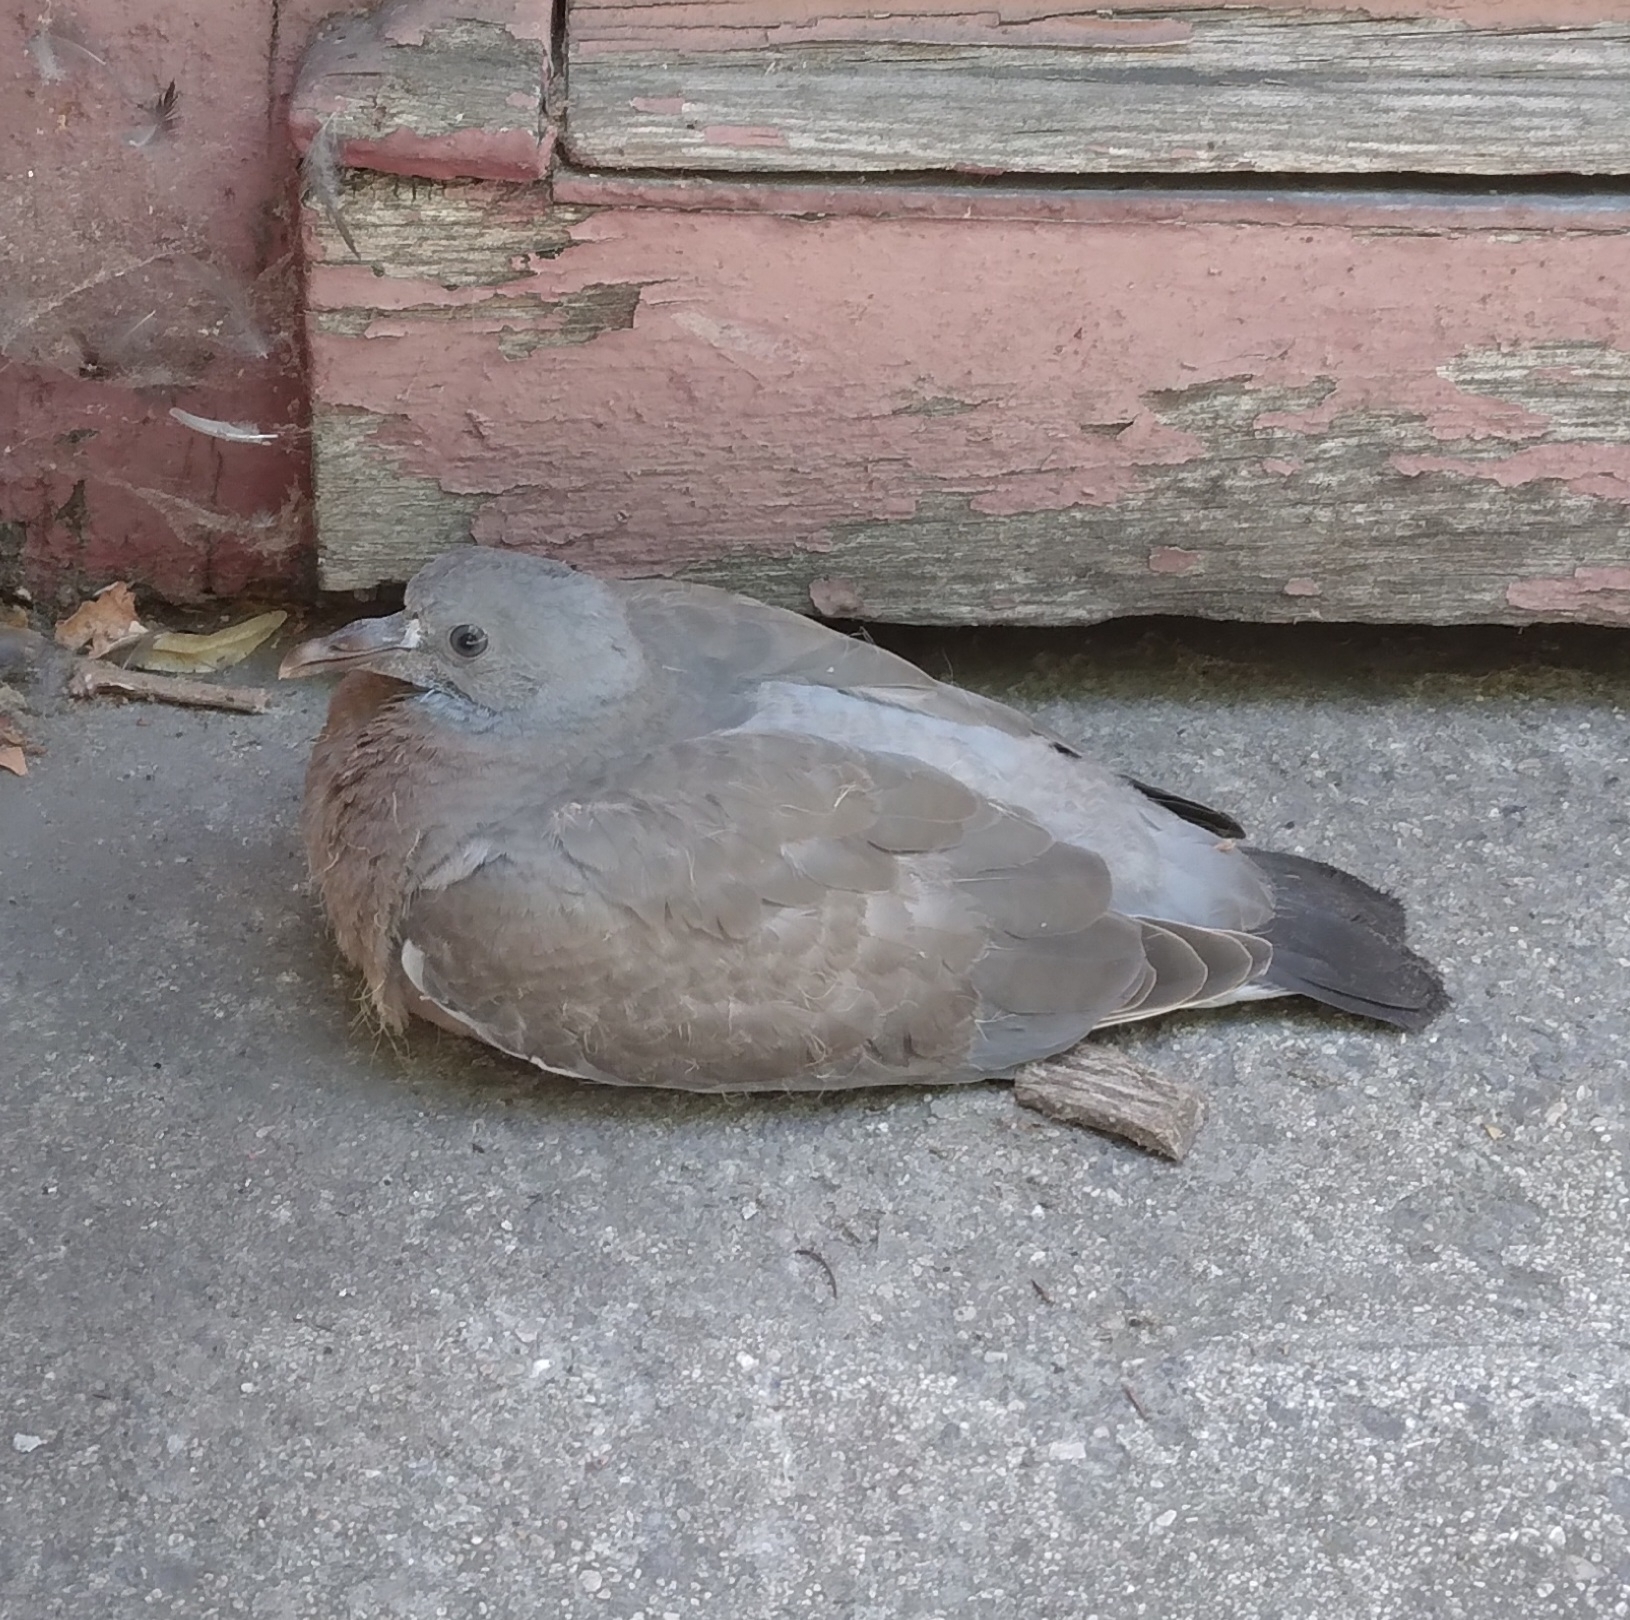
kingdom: Animalia
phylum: Chordata
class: Aves
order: Columbiformes
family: Columbidae
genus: Columba
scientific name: Columba palumbus
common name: Common wood pigeon
